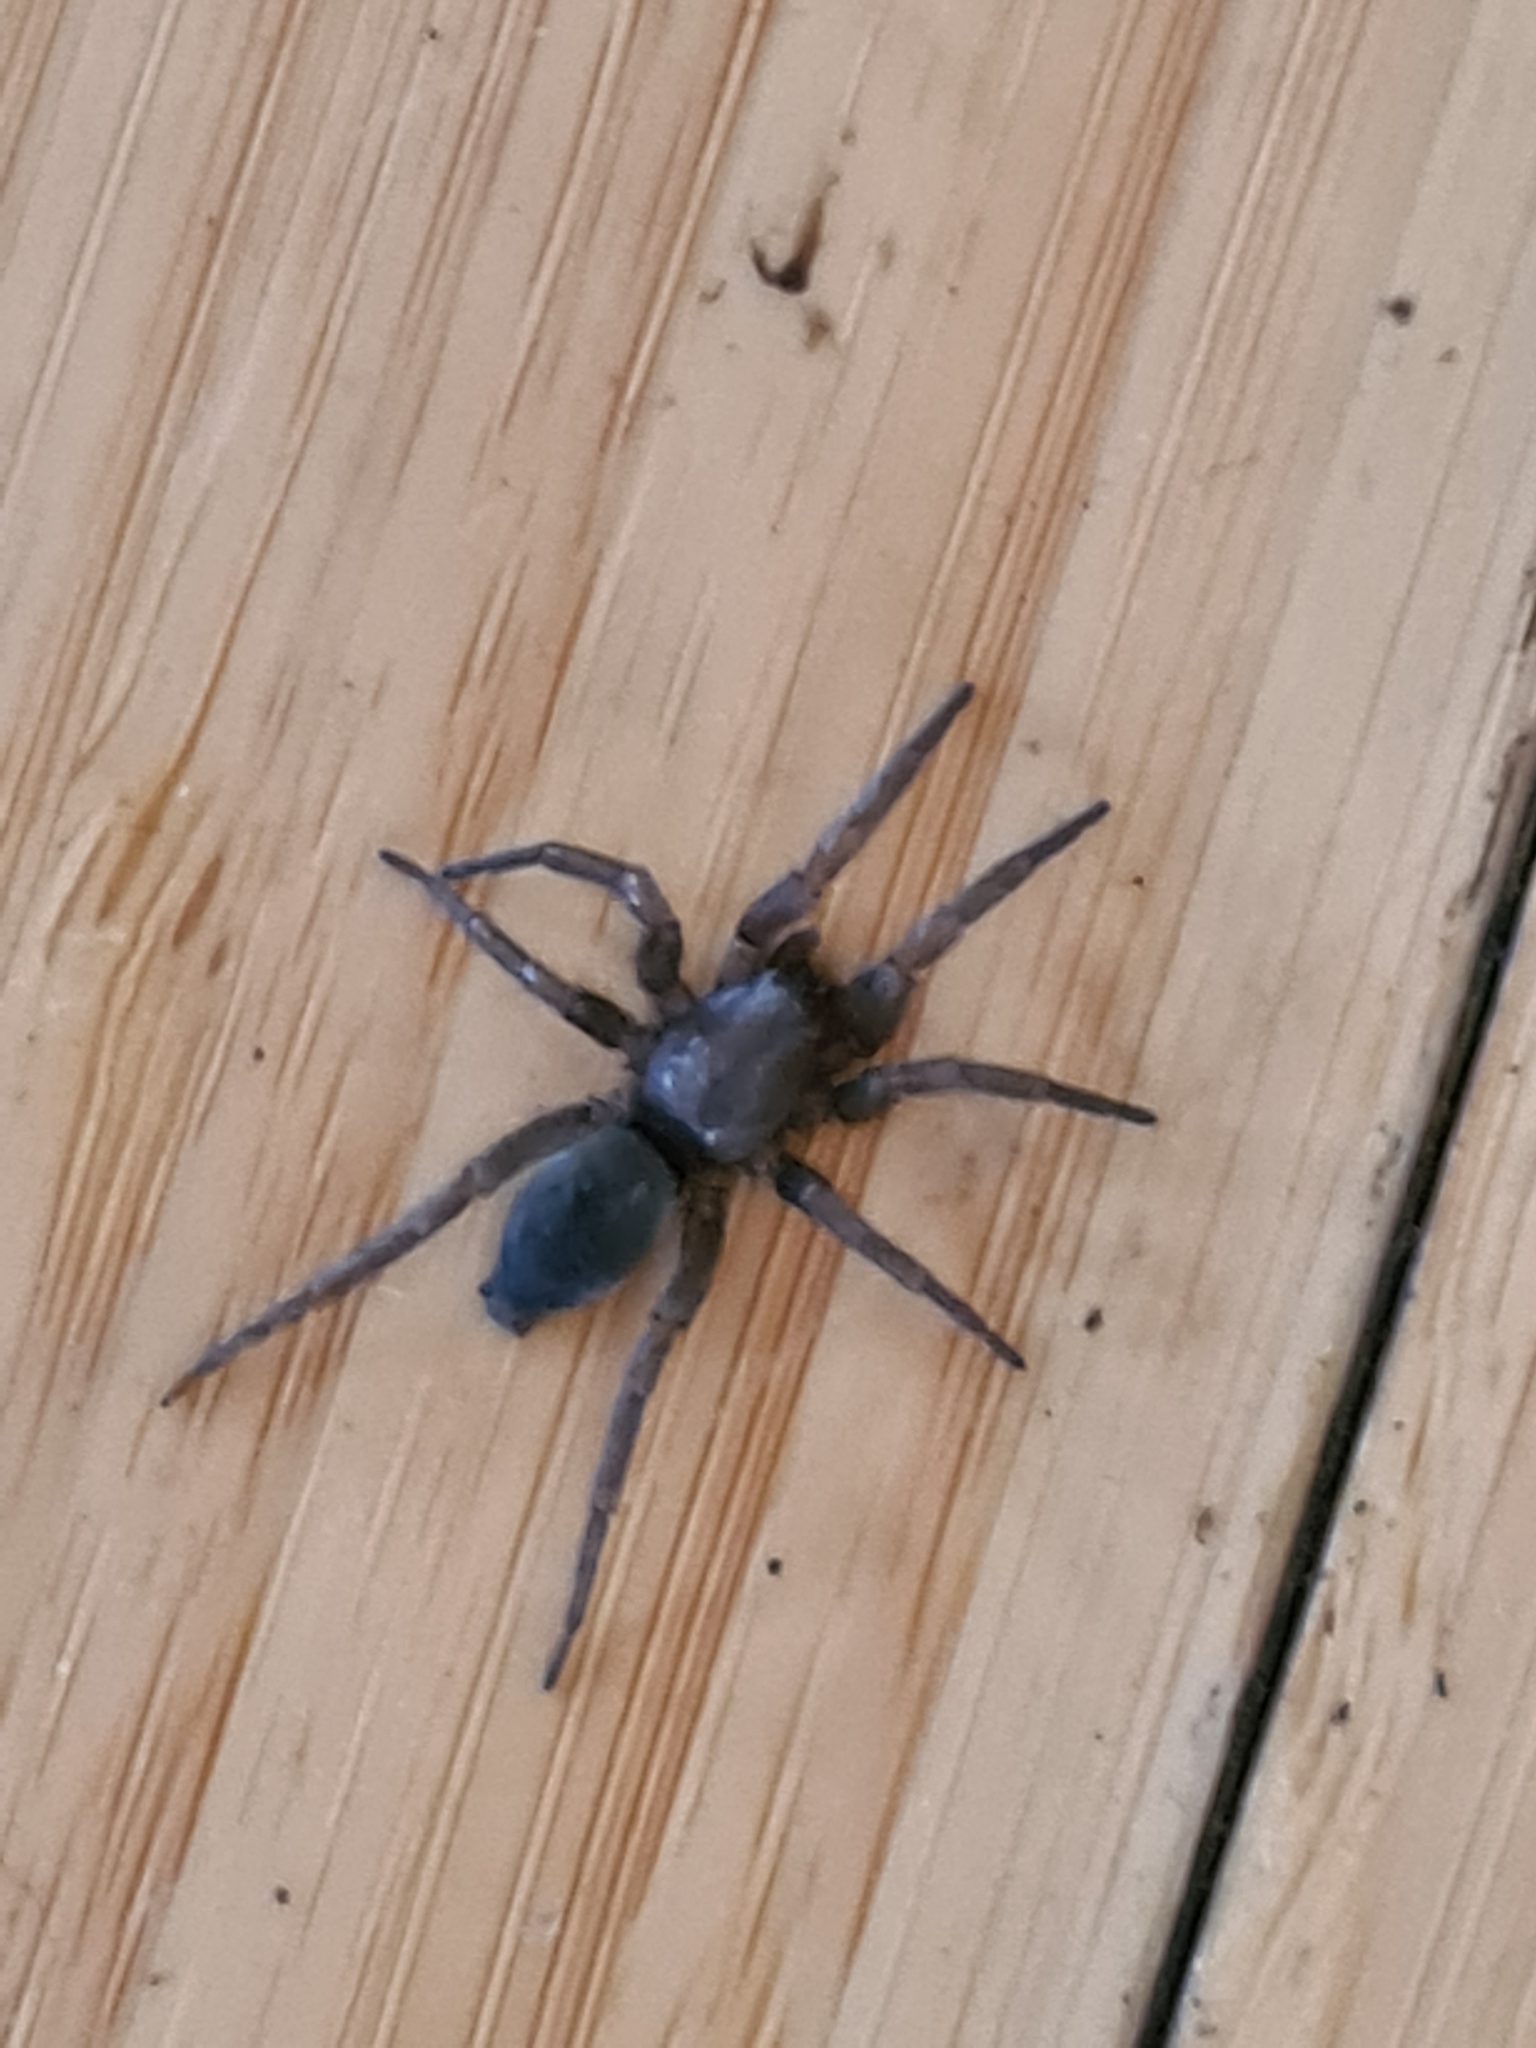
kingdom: Animalia
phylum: Arthropoda
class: Arachnida
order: Araneae
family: Gnaphosidae
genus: Scotophaeus
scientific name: Scotophaeus blackwalli
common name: Mouse spider
